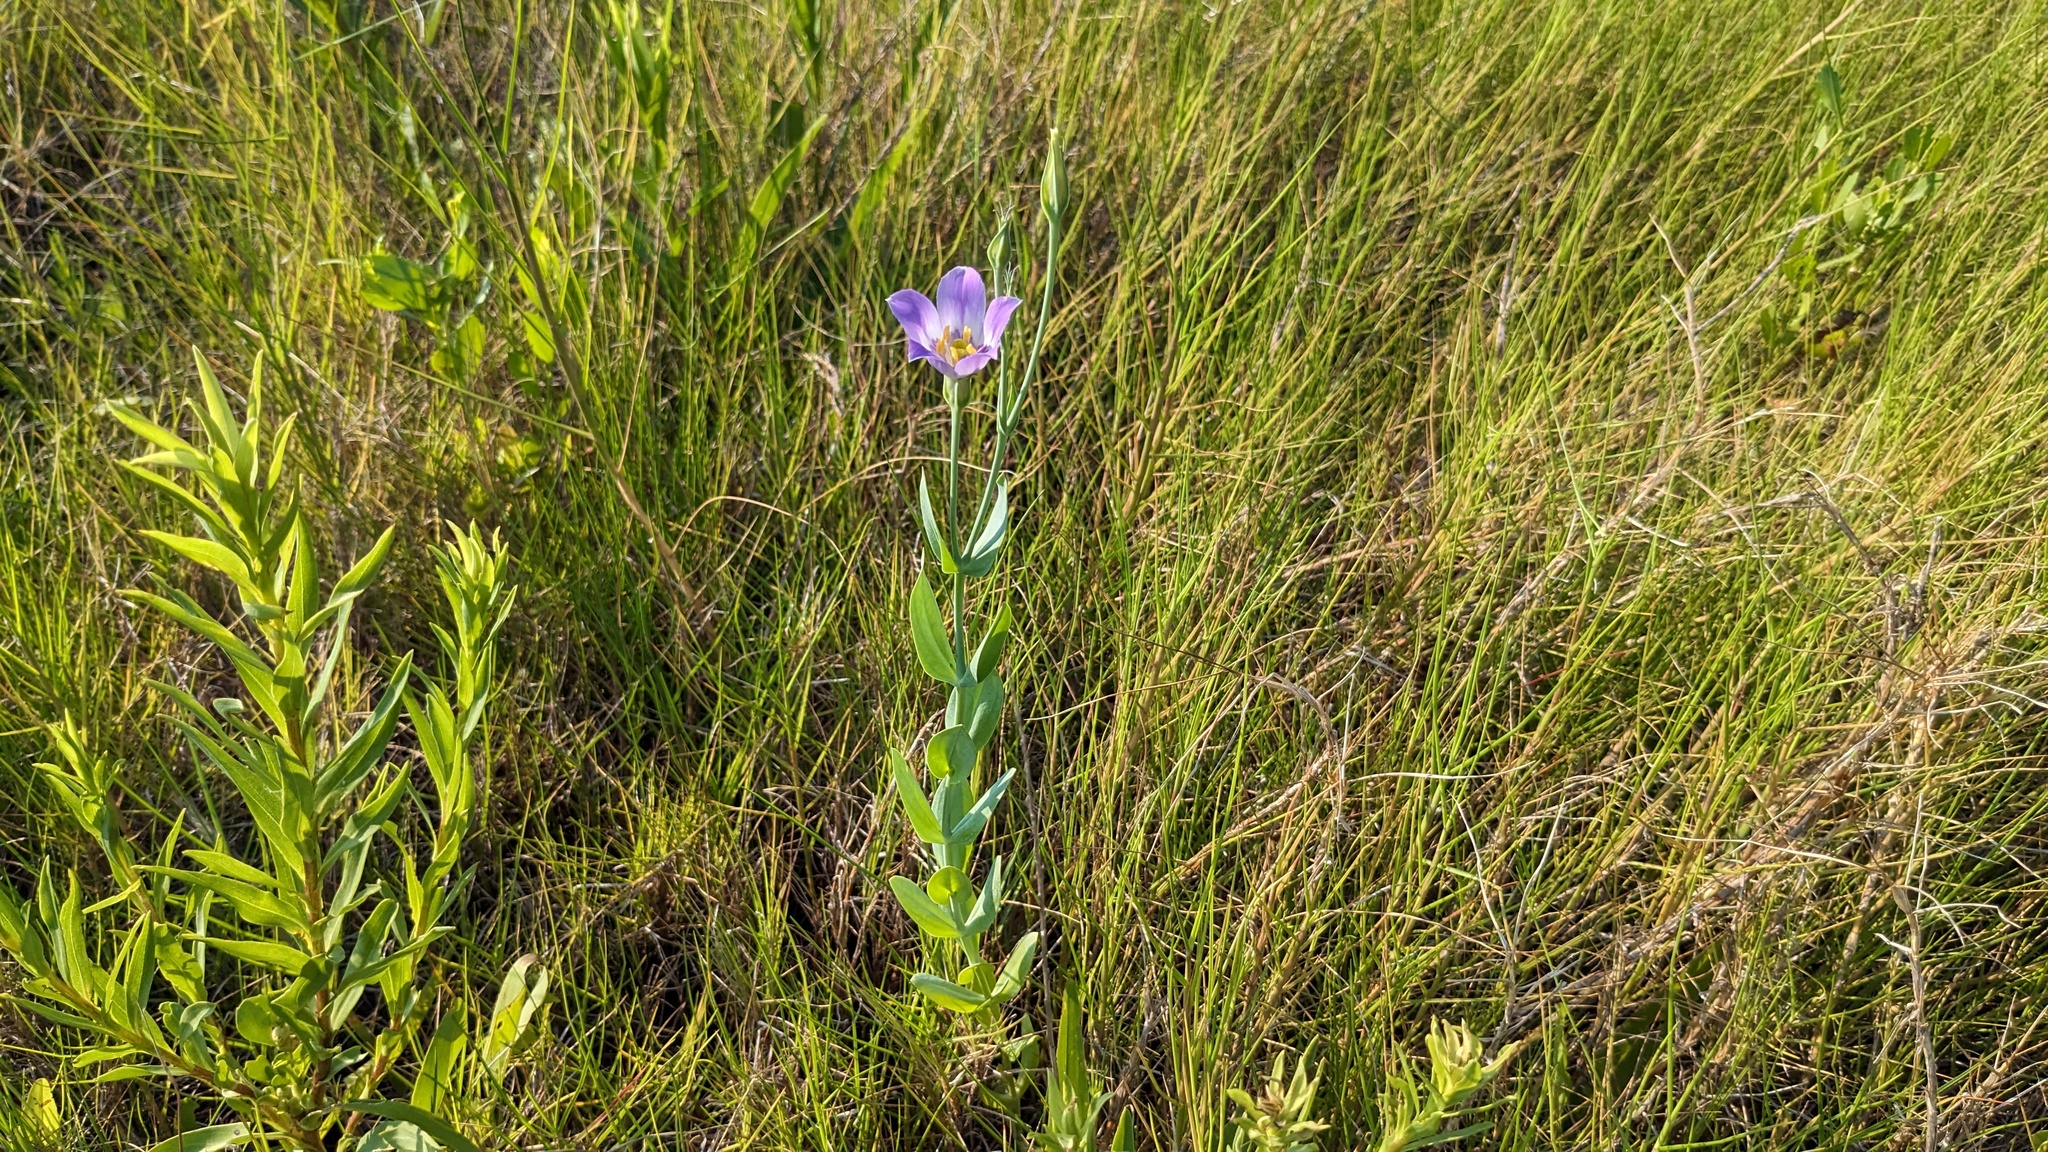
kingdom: Plantae
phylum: Tracheophyta
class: Magnoliopsida
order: Gentianales
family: Gentianaceae
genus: Eustoma
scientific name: Eustoma exaltatum
